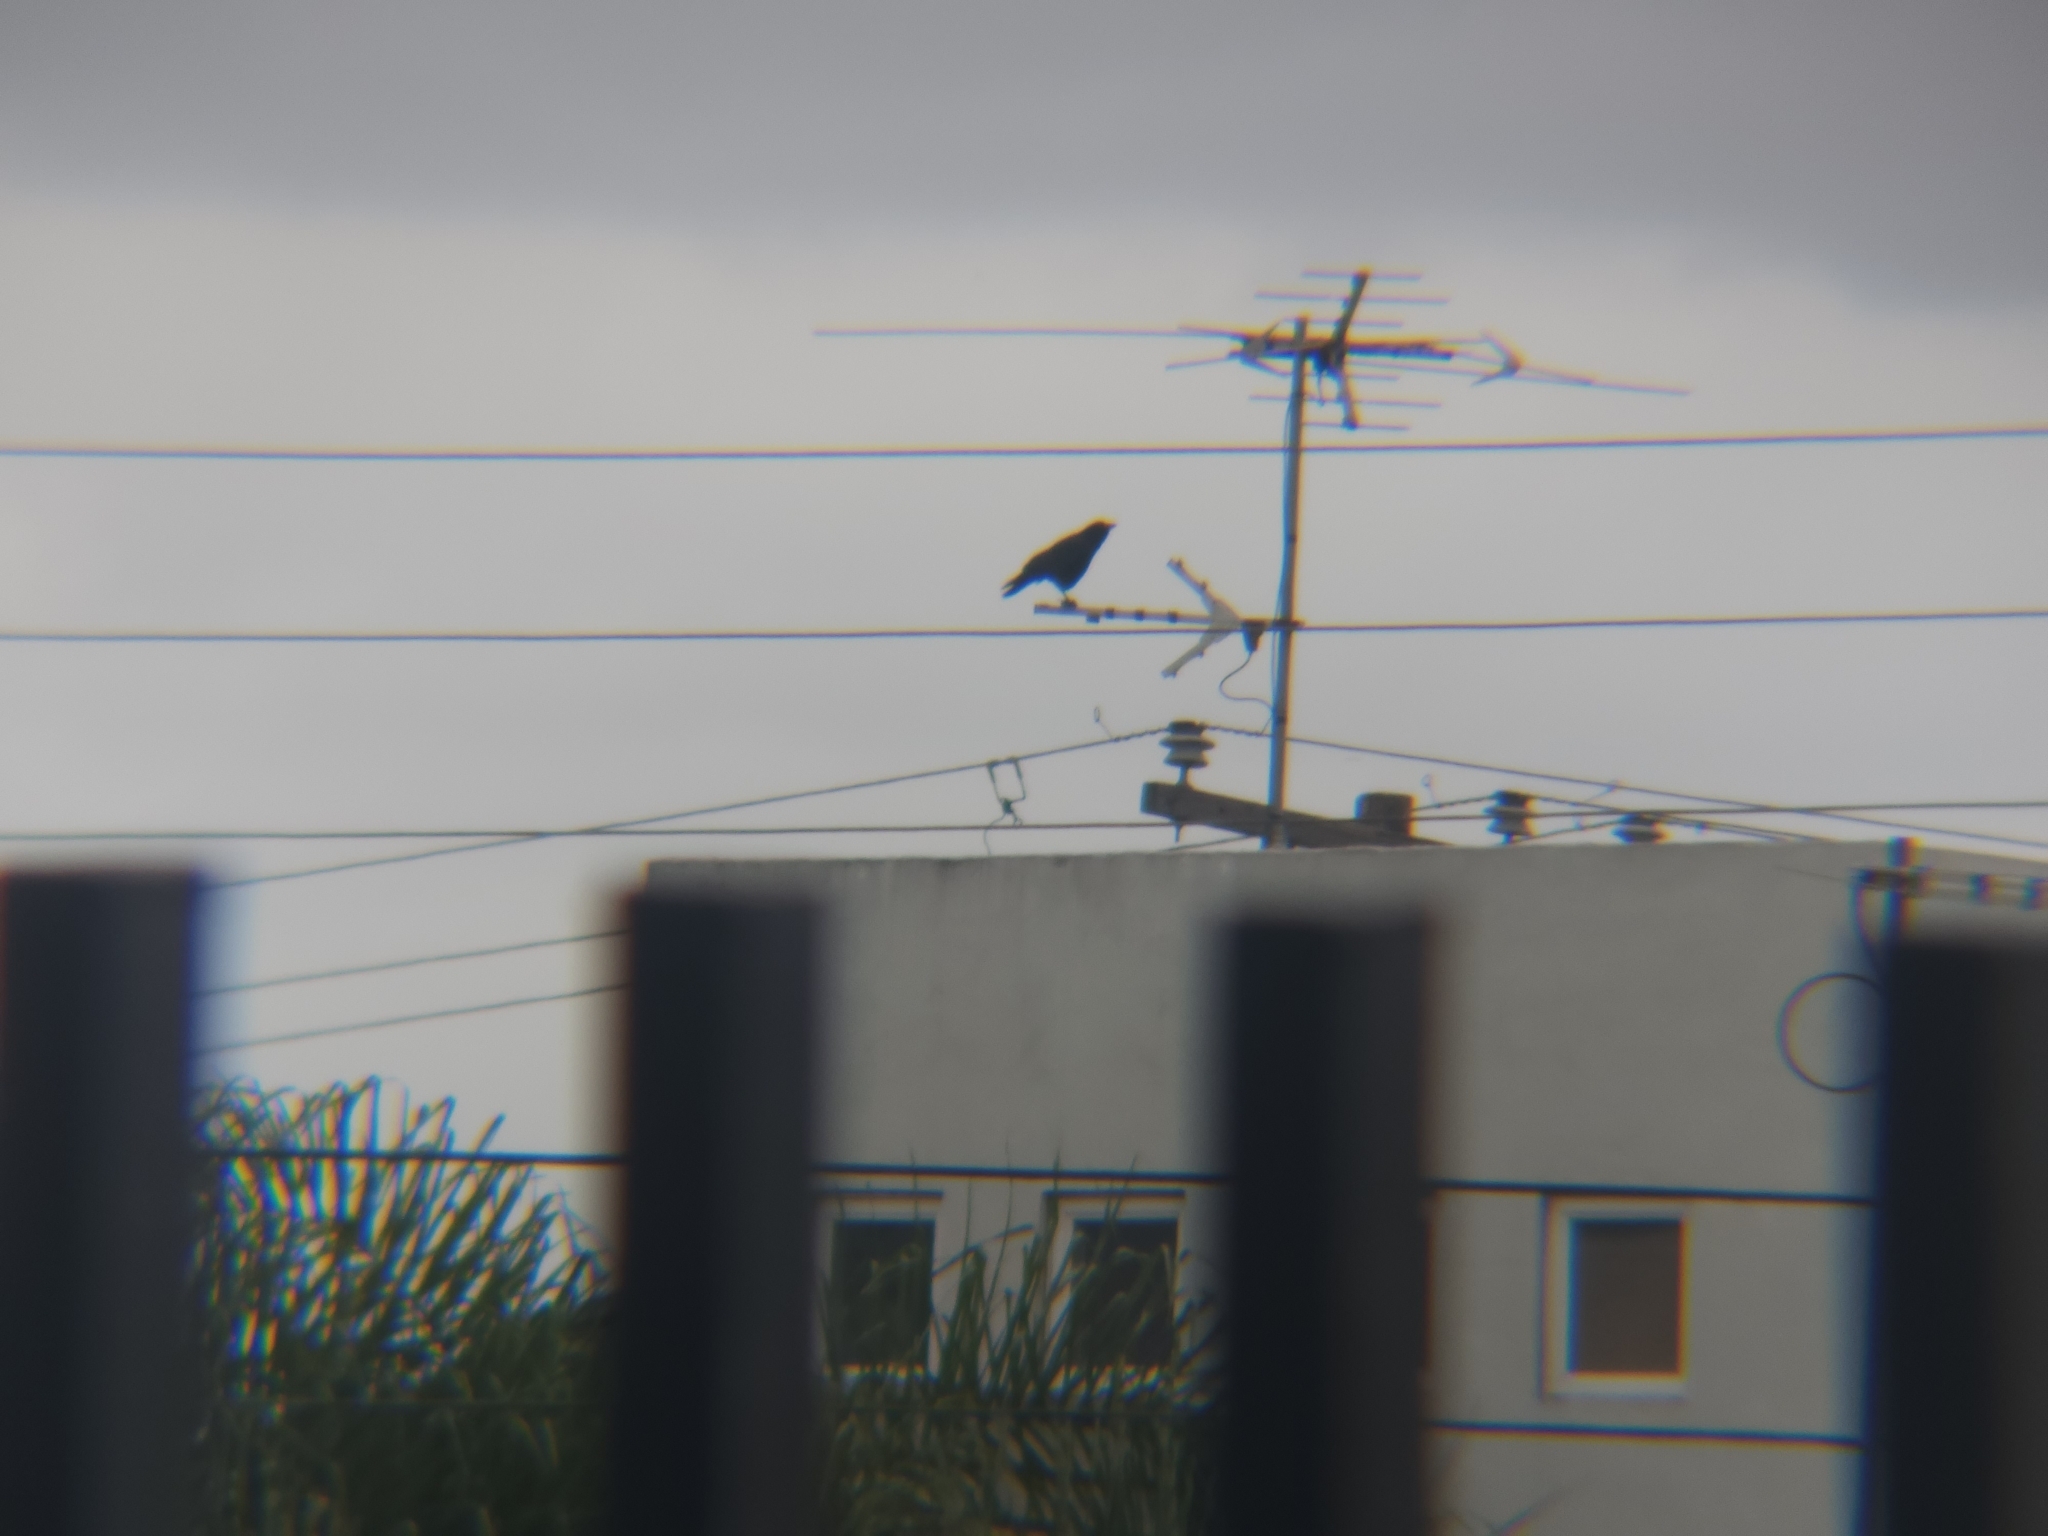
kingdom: Animalia
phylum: Chordata
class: Aves
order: Passeriformes
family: Corvidae
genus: Corvus
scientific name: Corvus brachyrhynchos
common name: American crow
